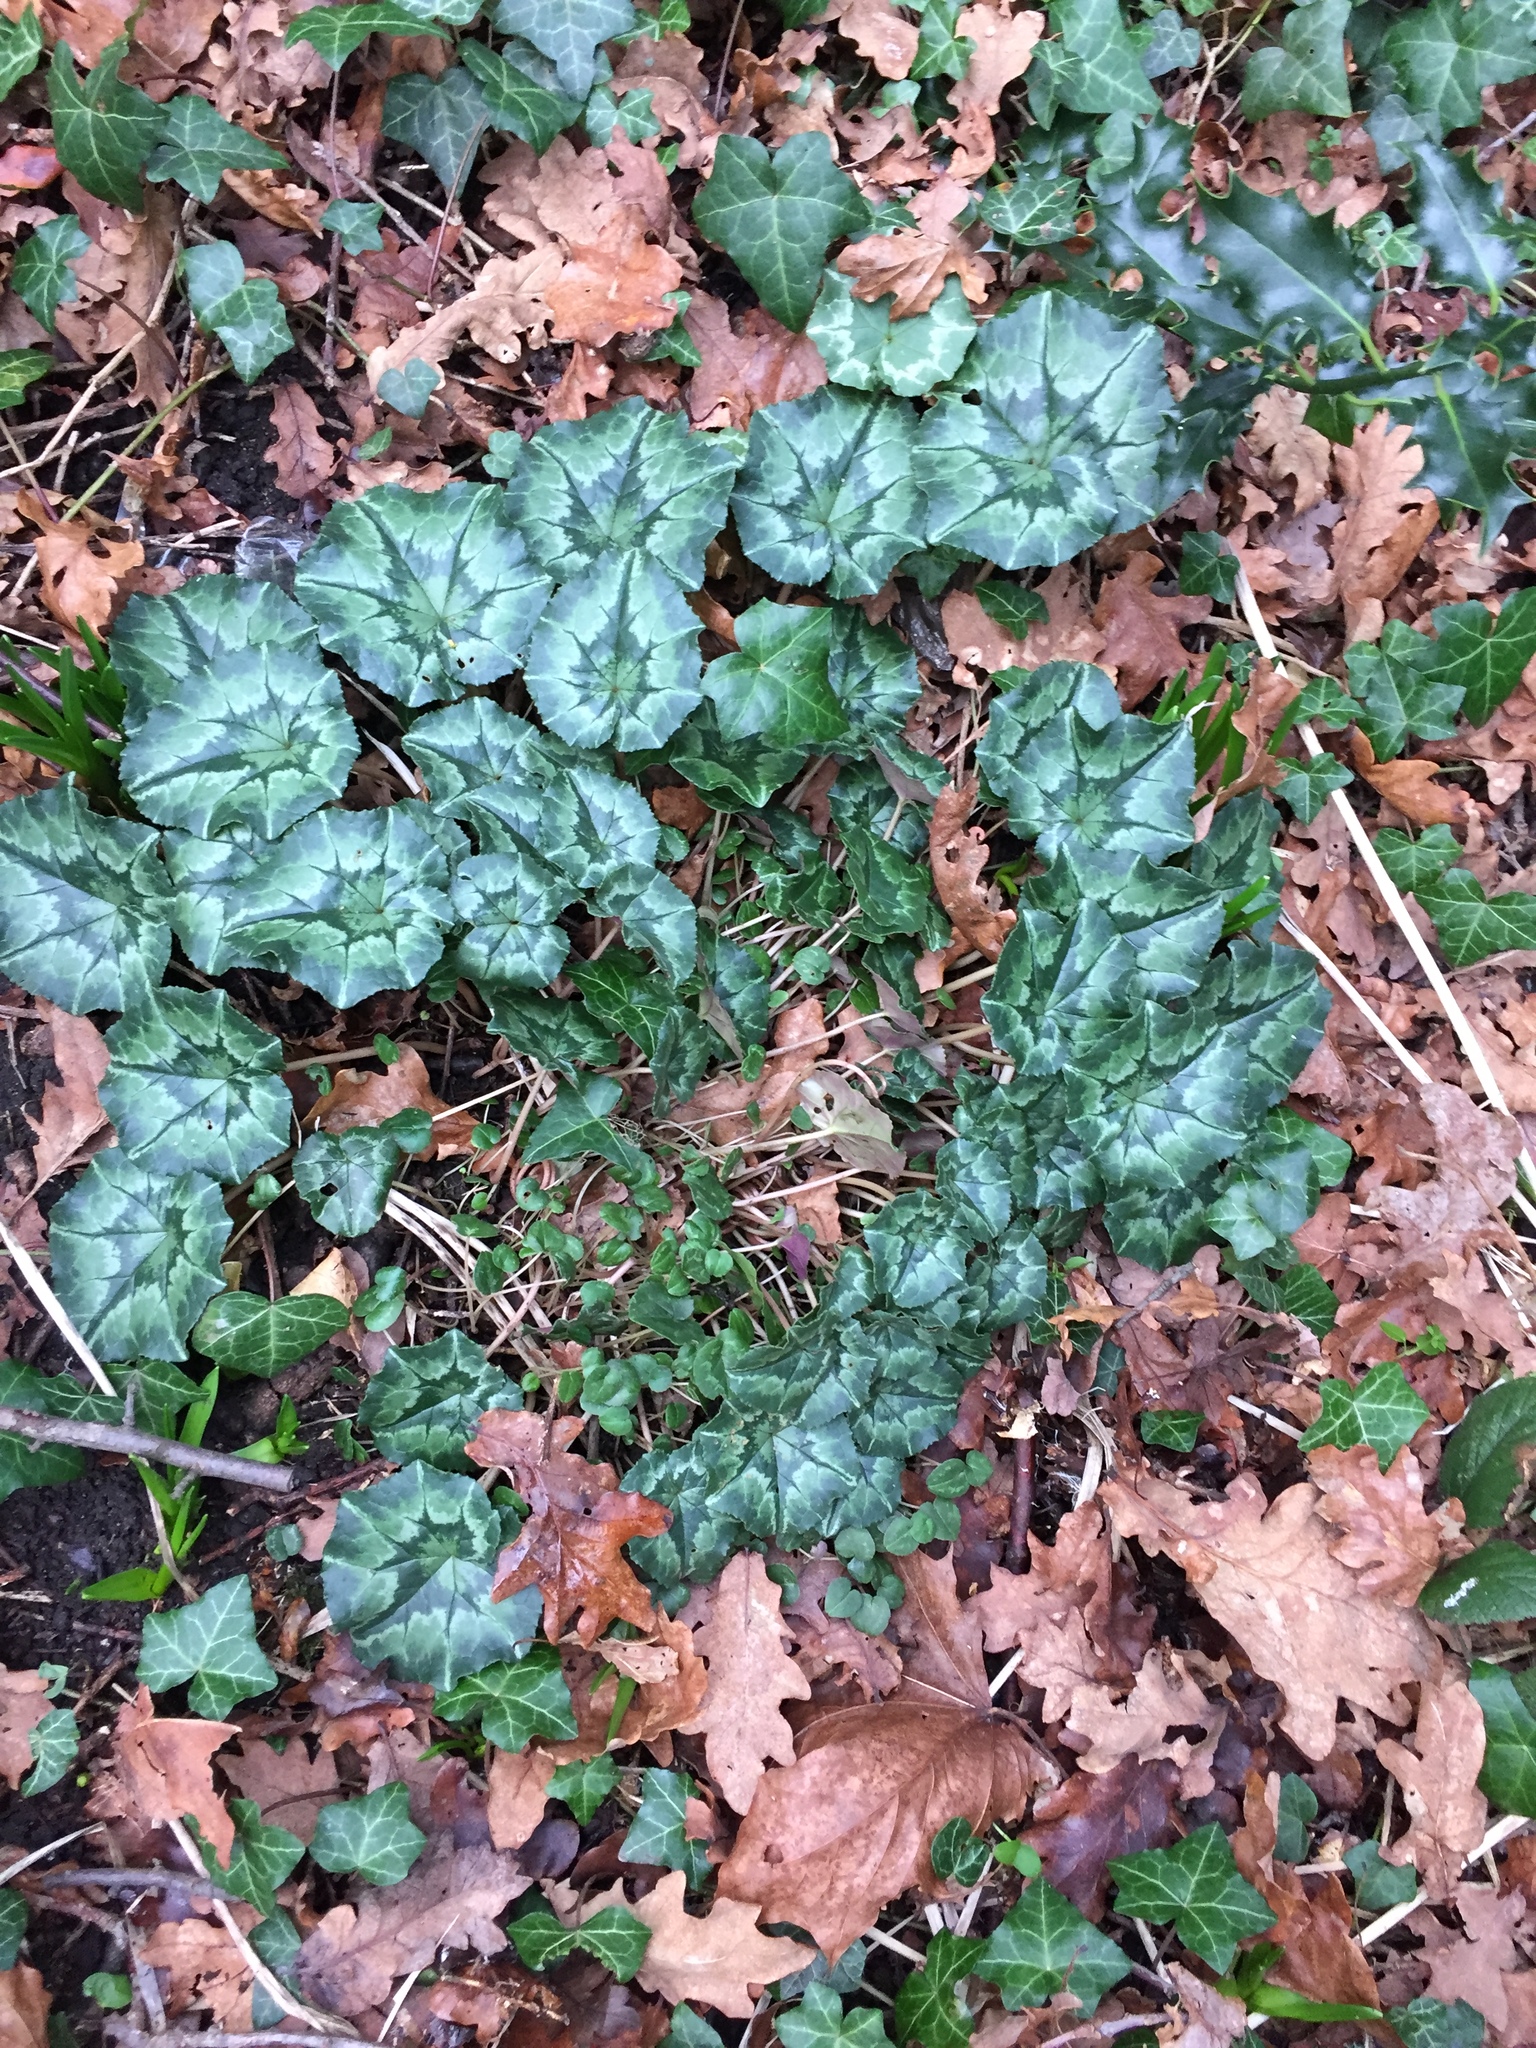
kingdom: Plantae
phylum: Tracheophyta
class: Magnoliopsida
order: Ericales
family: Primulaceae
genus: Cyclamen
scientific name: Cyclamen hederifolium
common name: Sowbread
